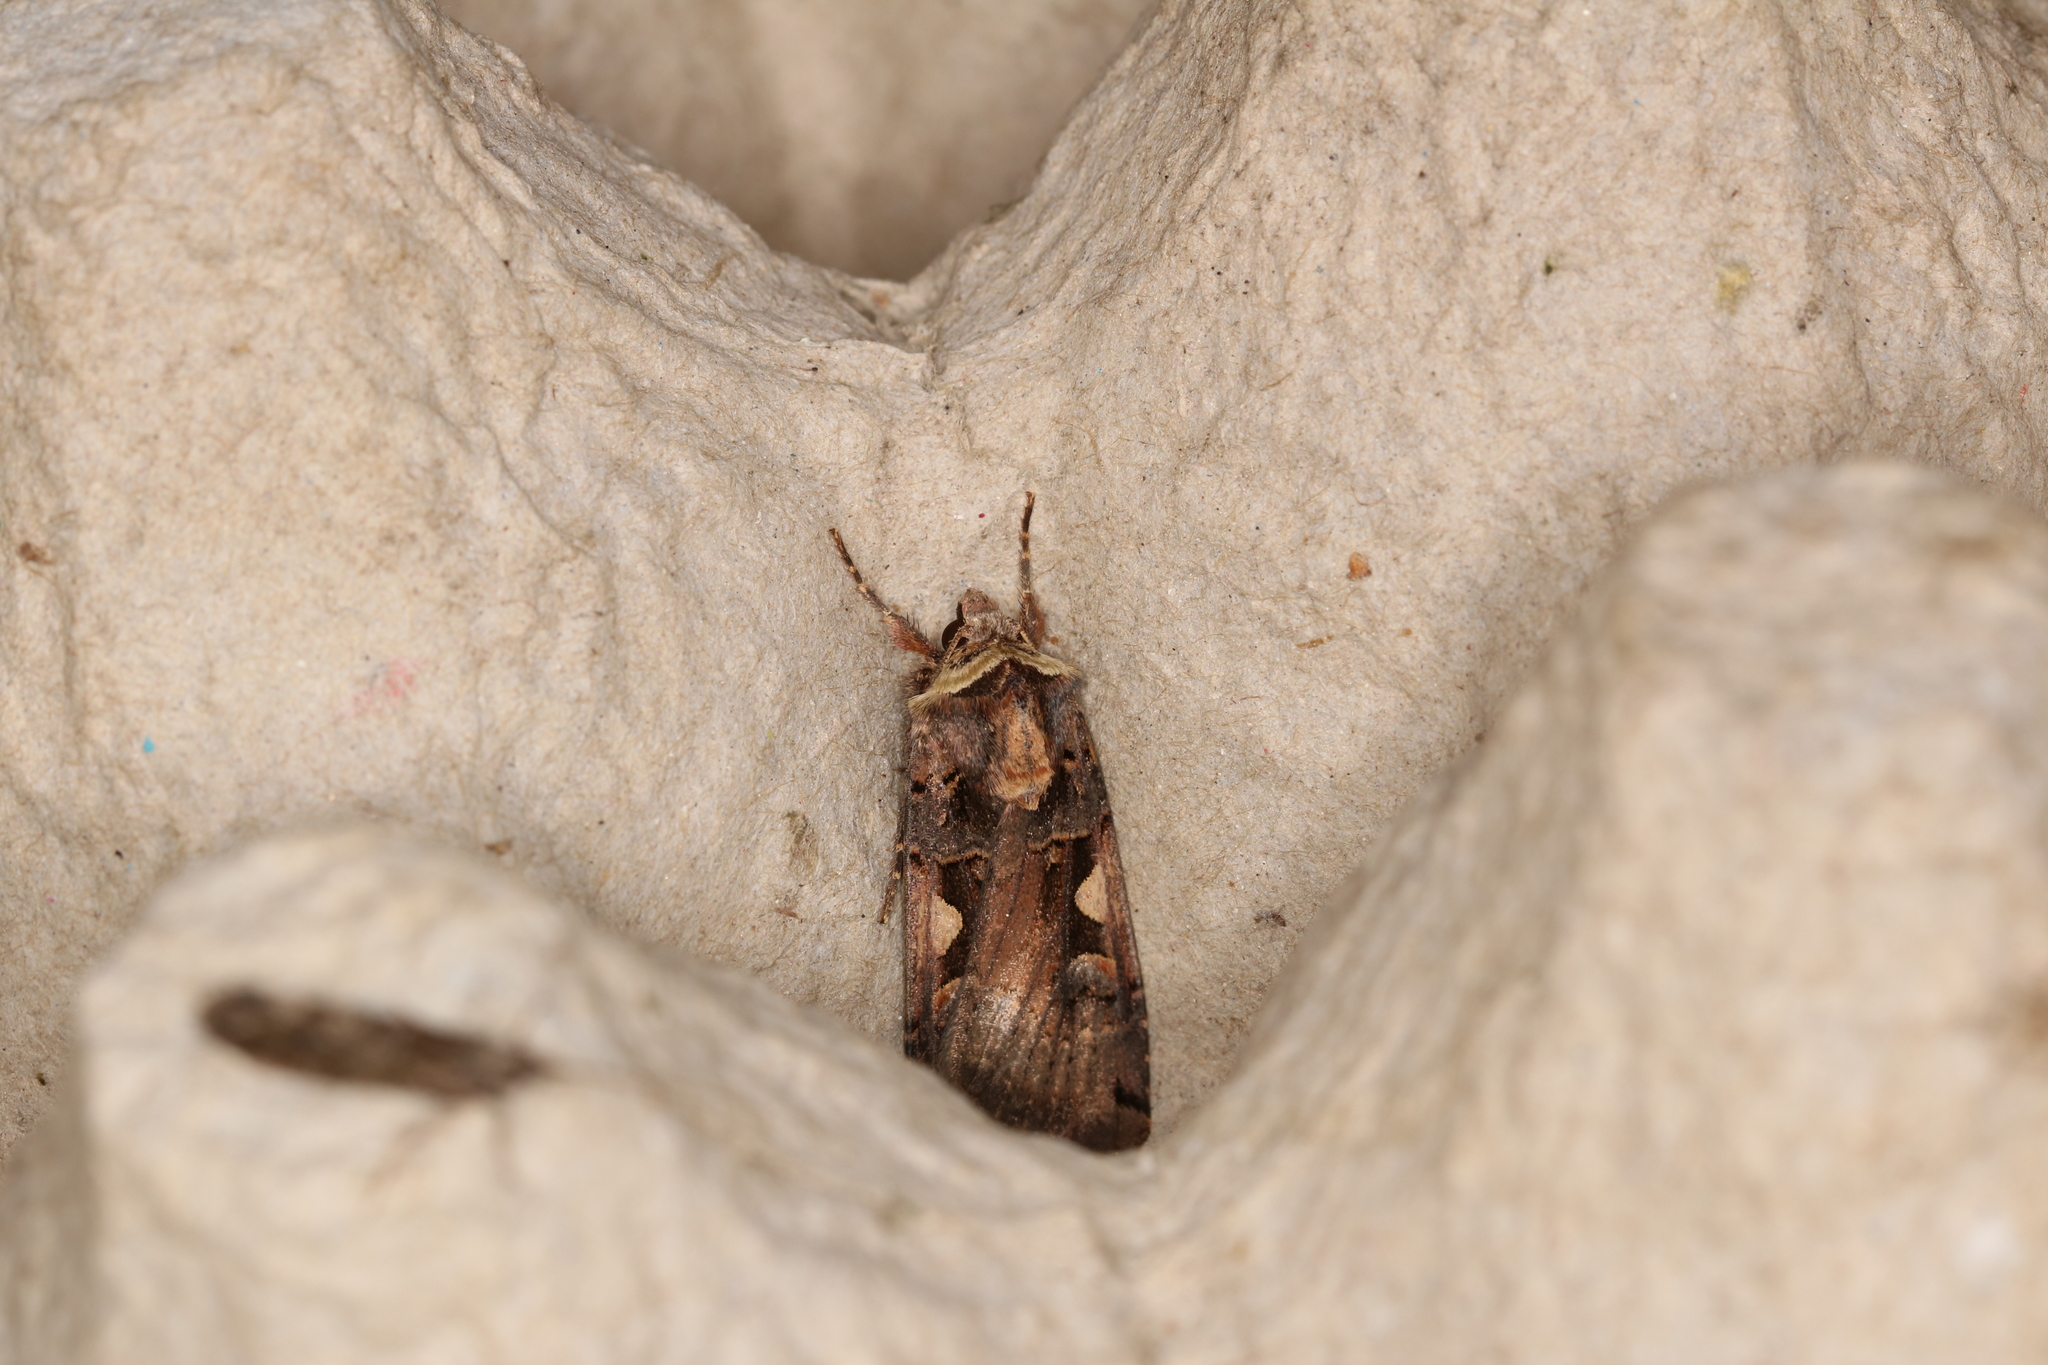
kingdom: Animalia
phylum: Arthropoda
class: Insecta
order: Lepidoptera
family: Noctuidae
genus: Xestia
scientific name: Xestia c-nigrum
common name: Setaceous hebrew character
